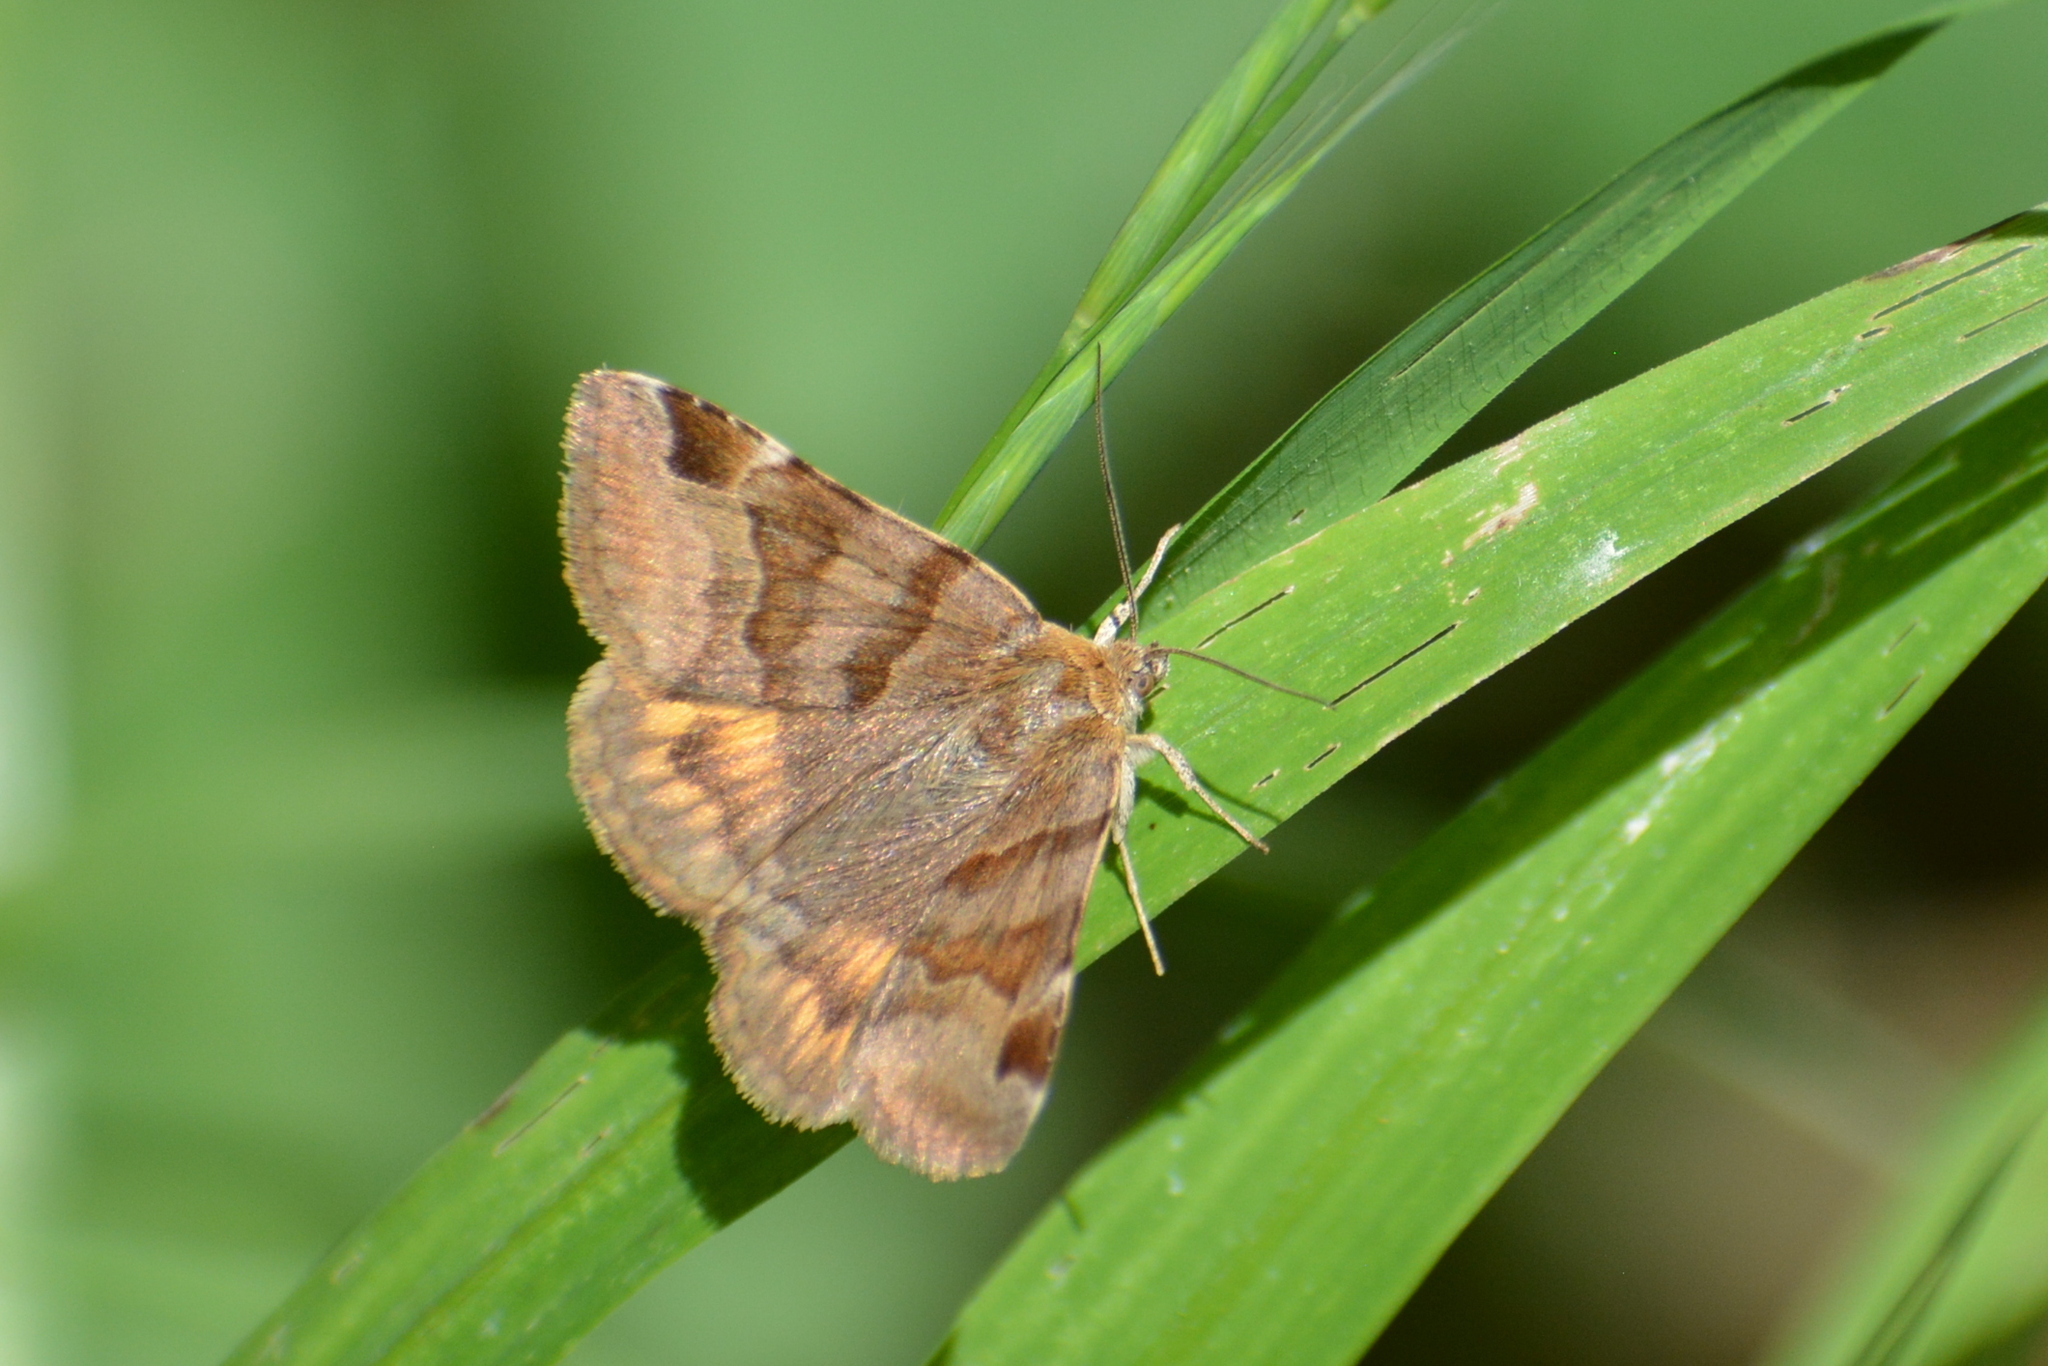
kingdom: Animalia
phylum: Arthropoda
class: Insecta
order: Lepidoptera
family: Erebidae
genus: Euclidia
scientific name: Euclidia glyphica
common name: Burnet companion
